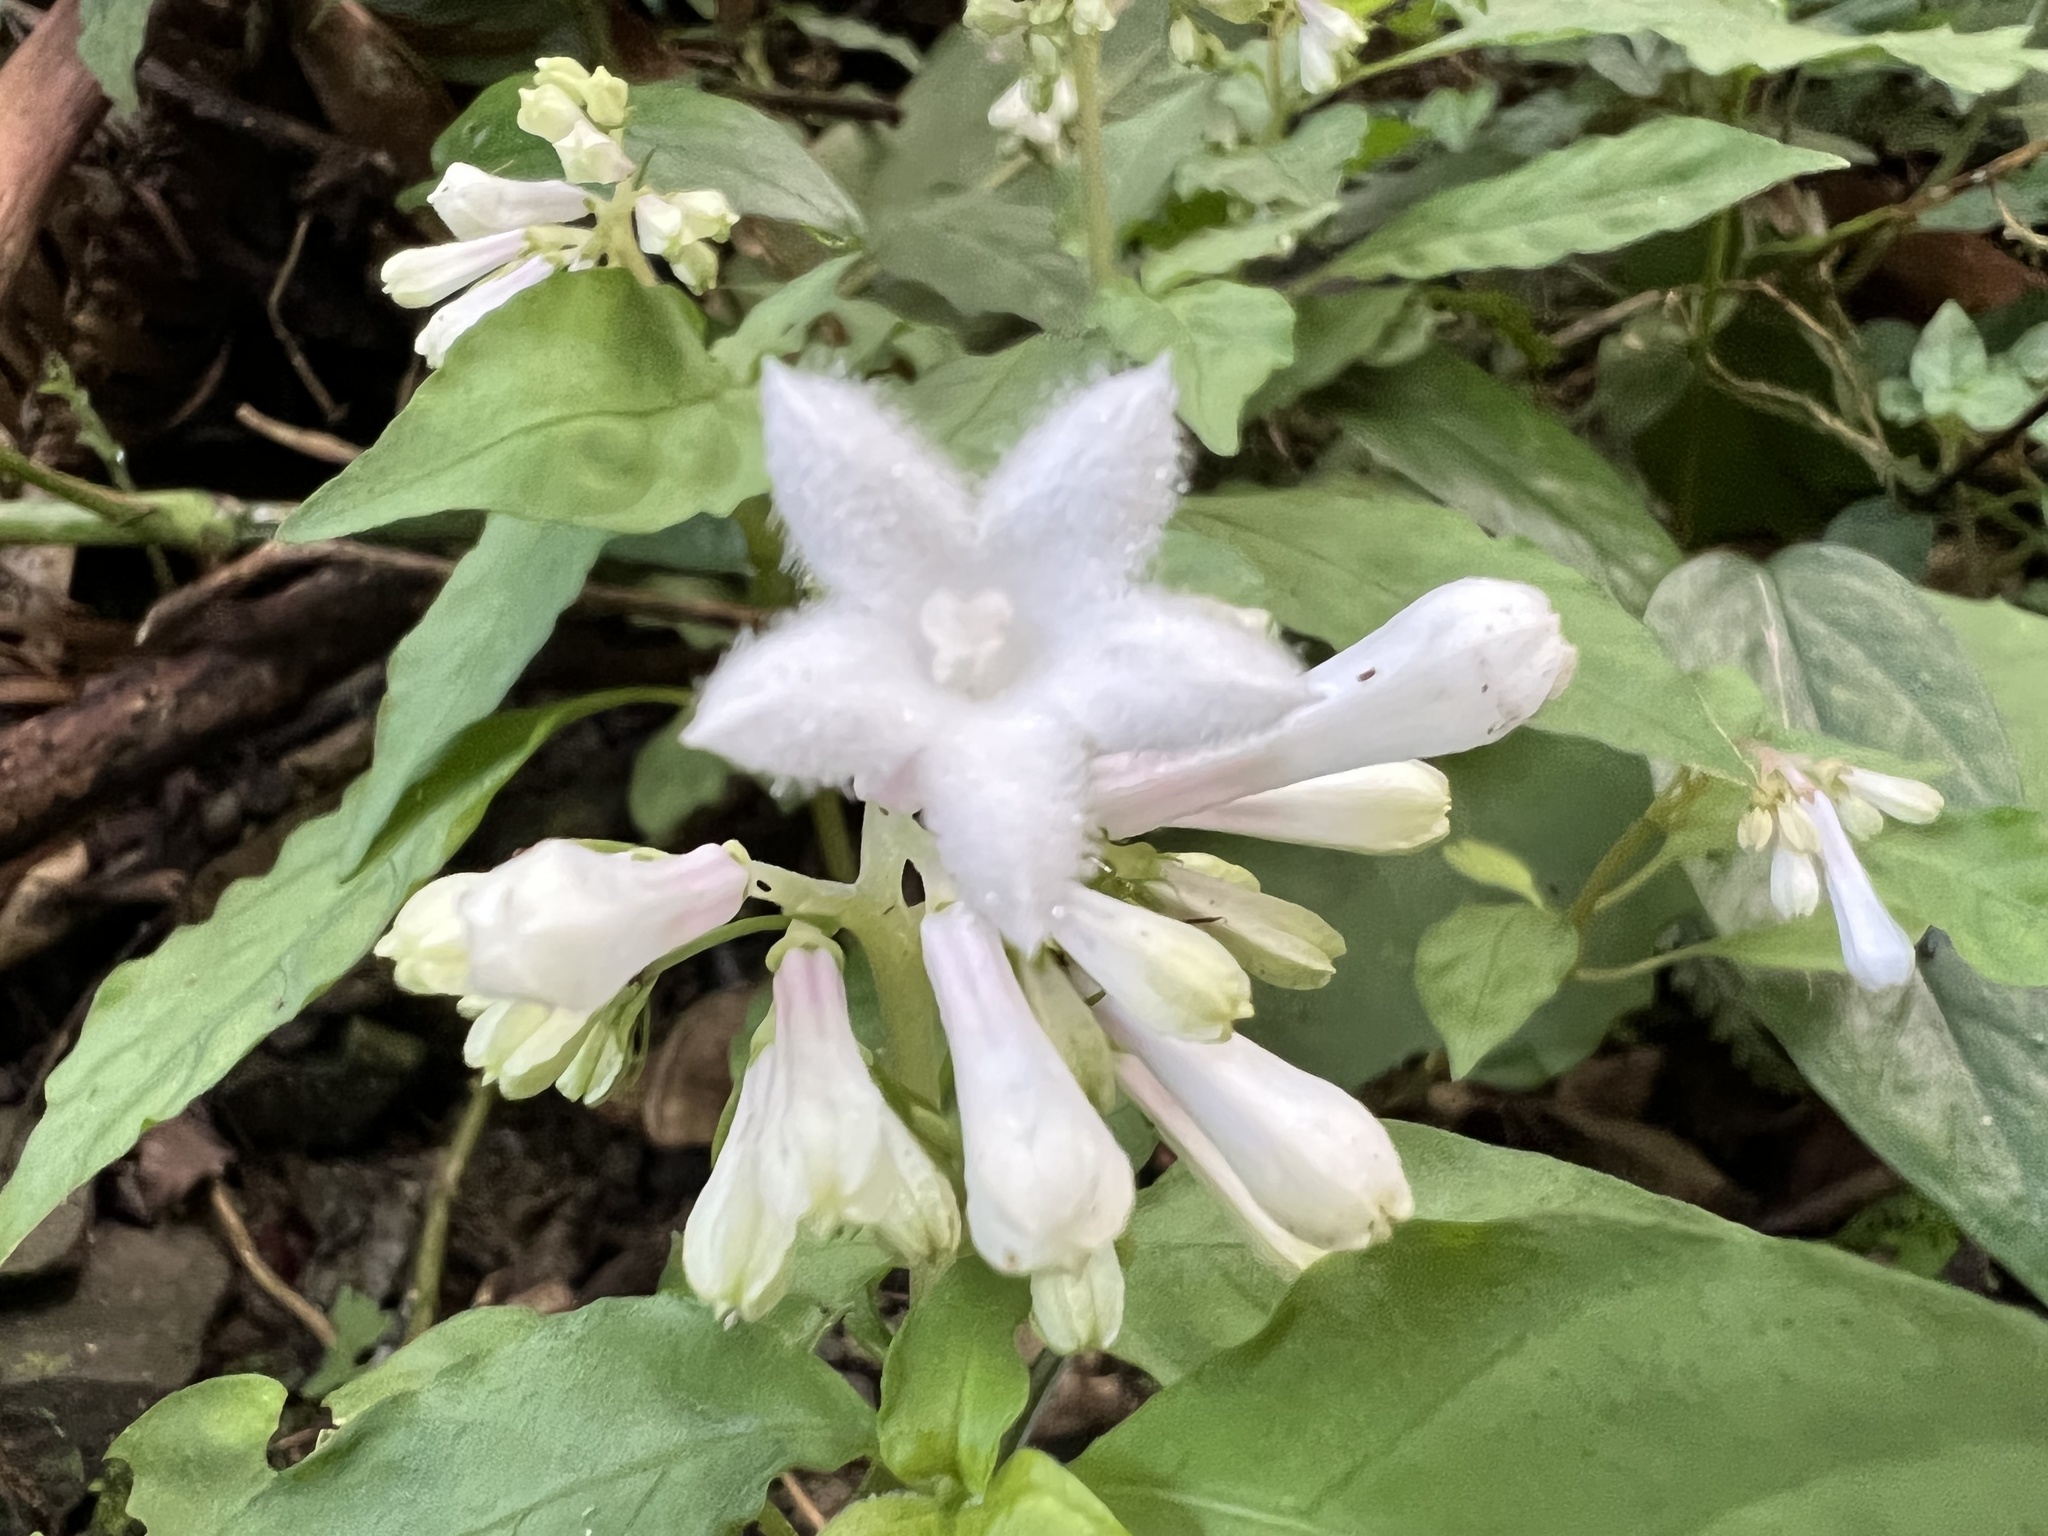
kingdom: Plantae
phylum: Tracheophyta
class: Magnoliopsida
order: Gentianales
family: Rubiaceae
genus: Ophiorrhiza
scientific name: Ophiorrhiza japonica
